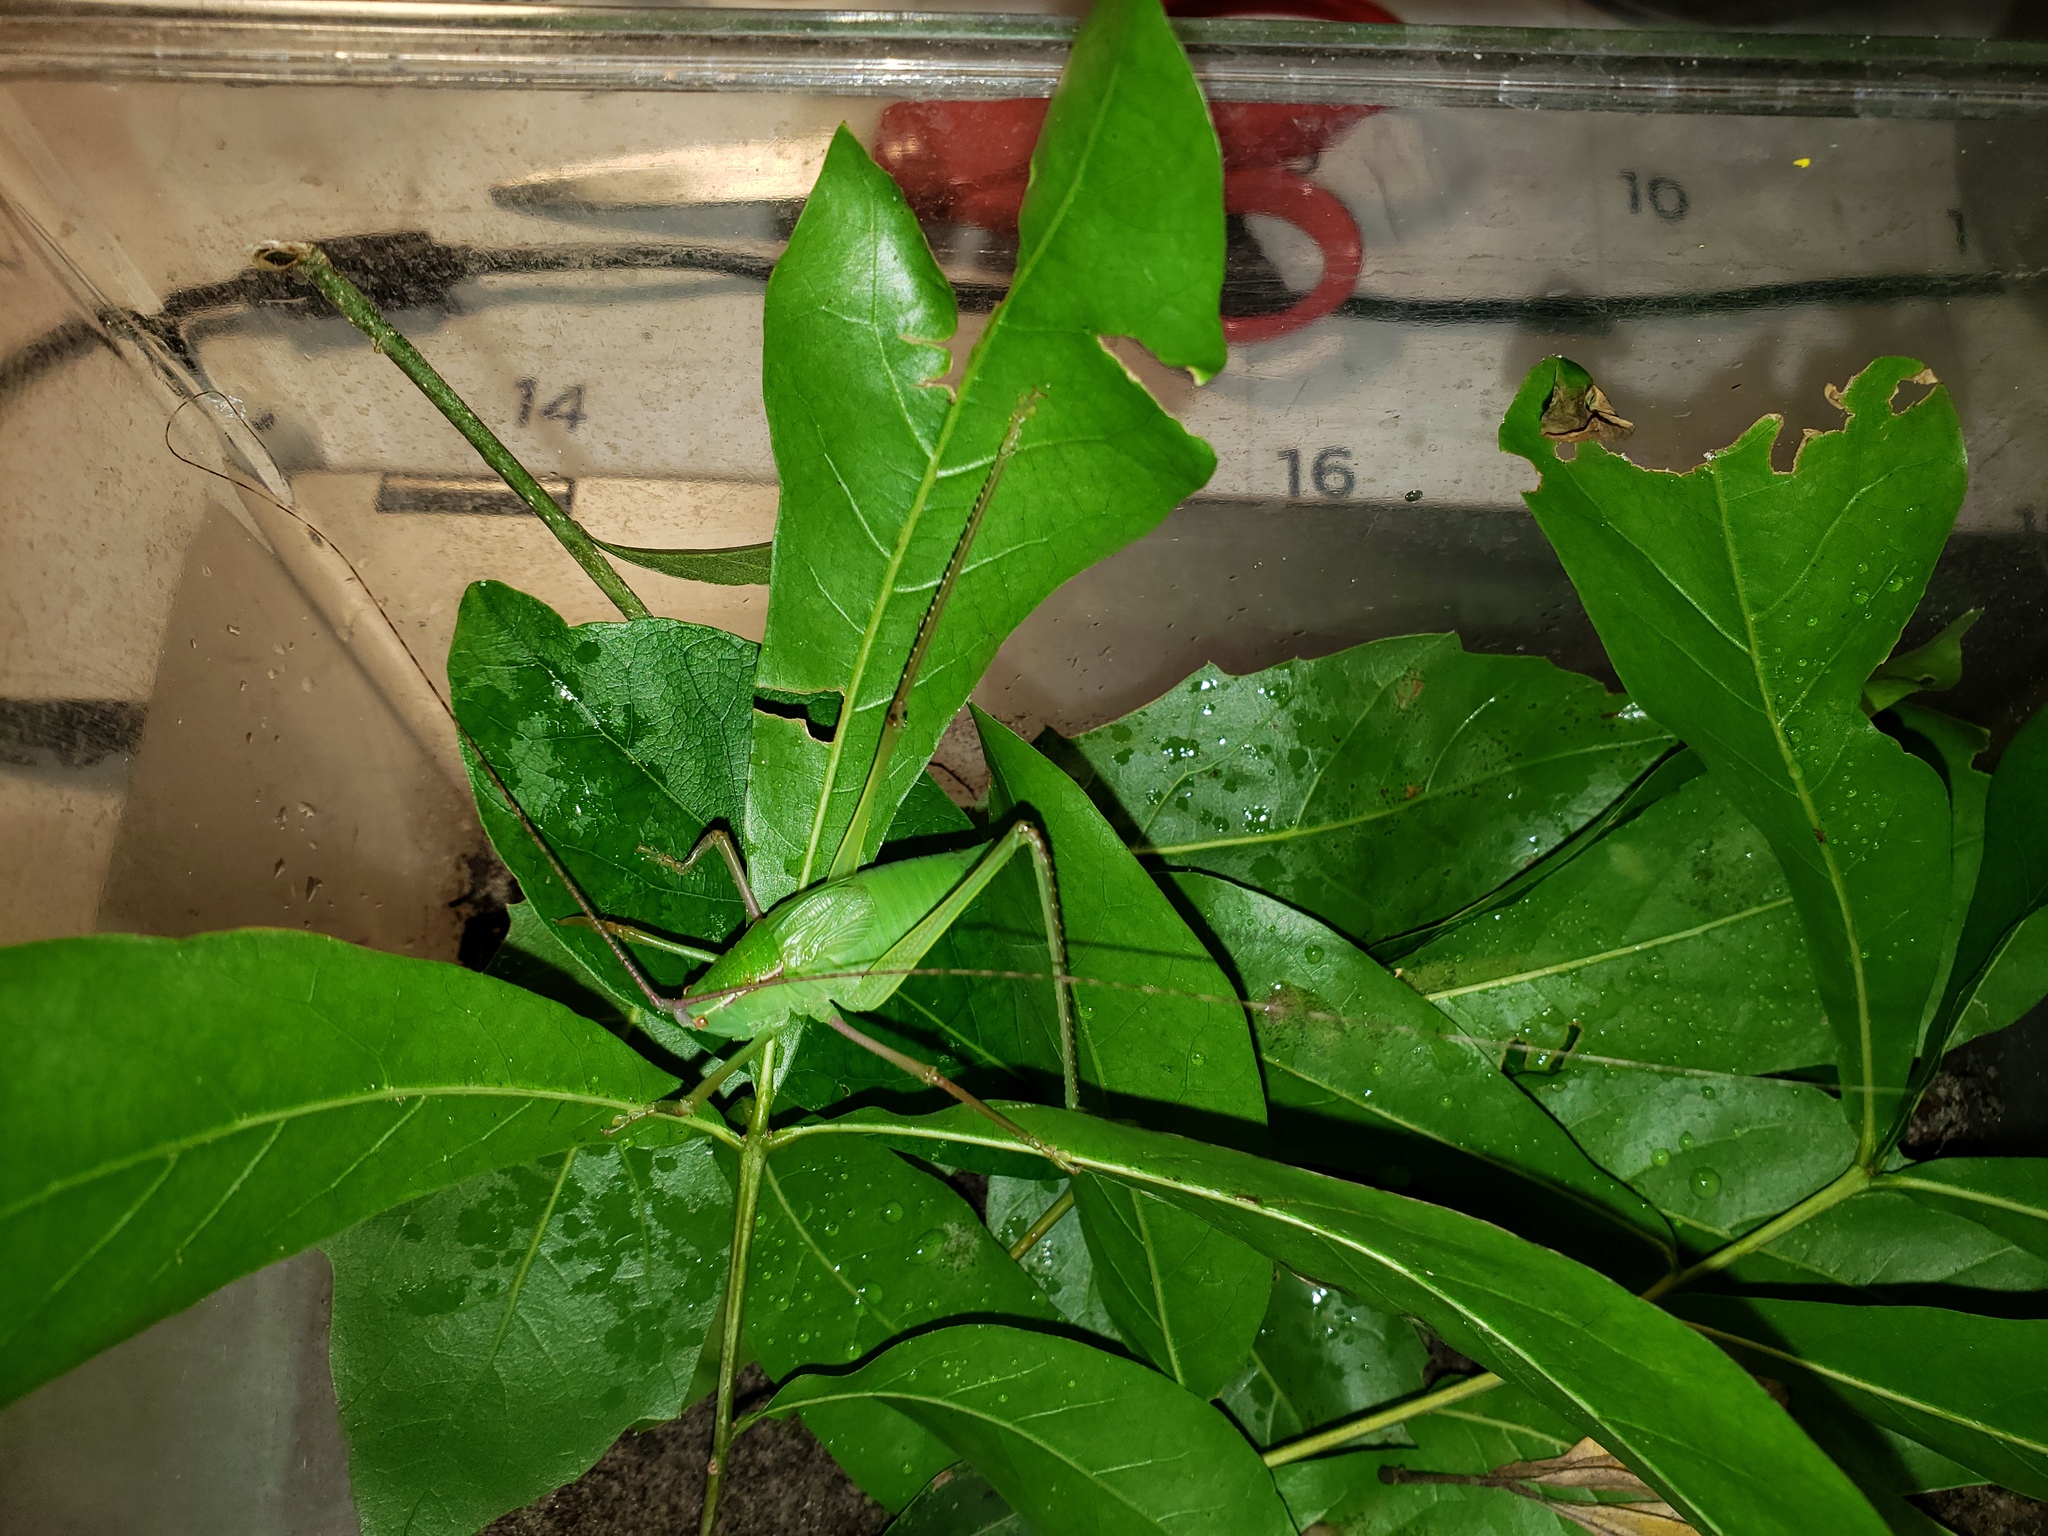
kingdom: Animalia
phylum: Arthropoda
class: Insecta
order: Orthoptera
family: Tettigoniidae
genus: Lea
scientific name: Lea floridensis
